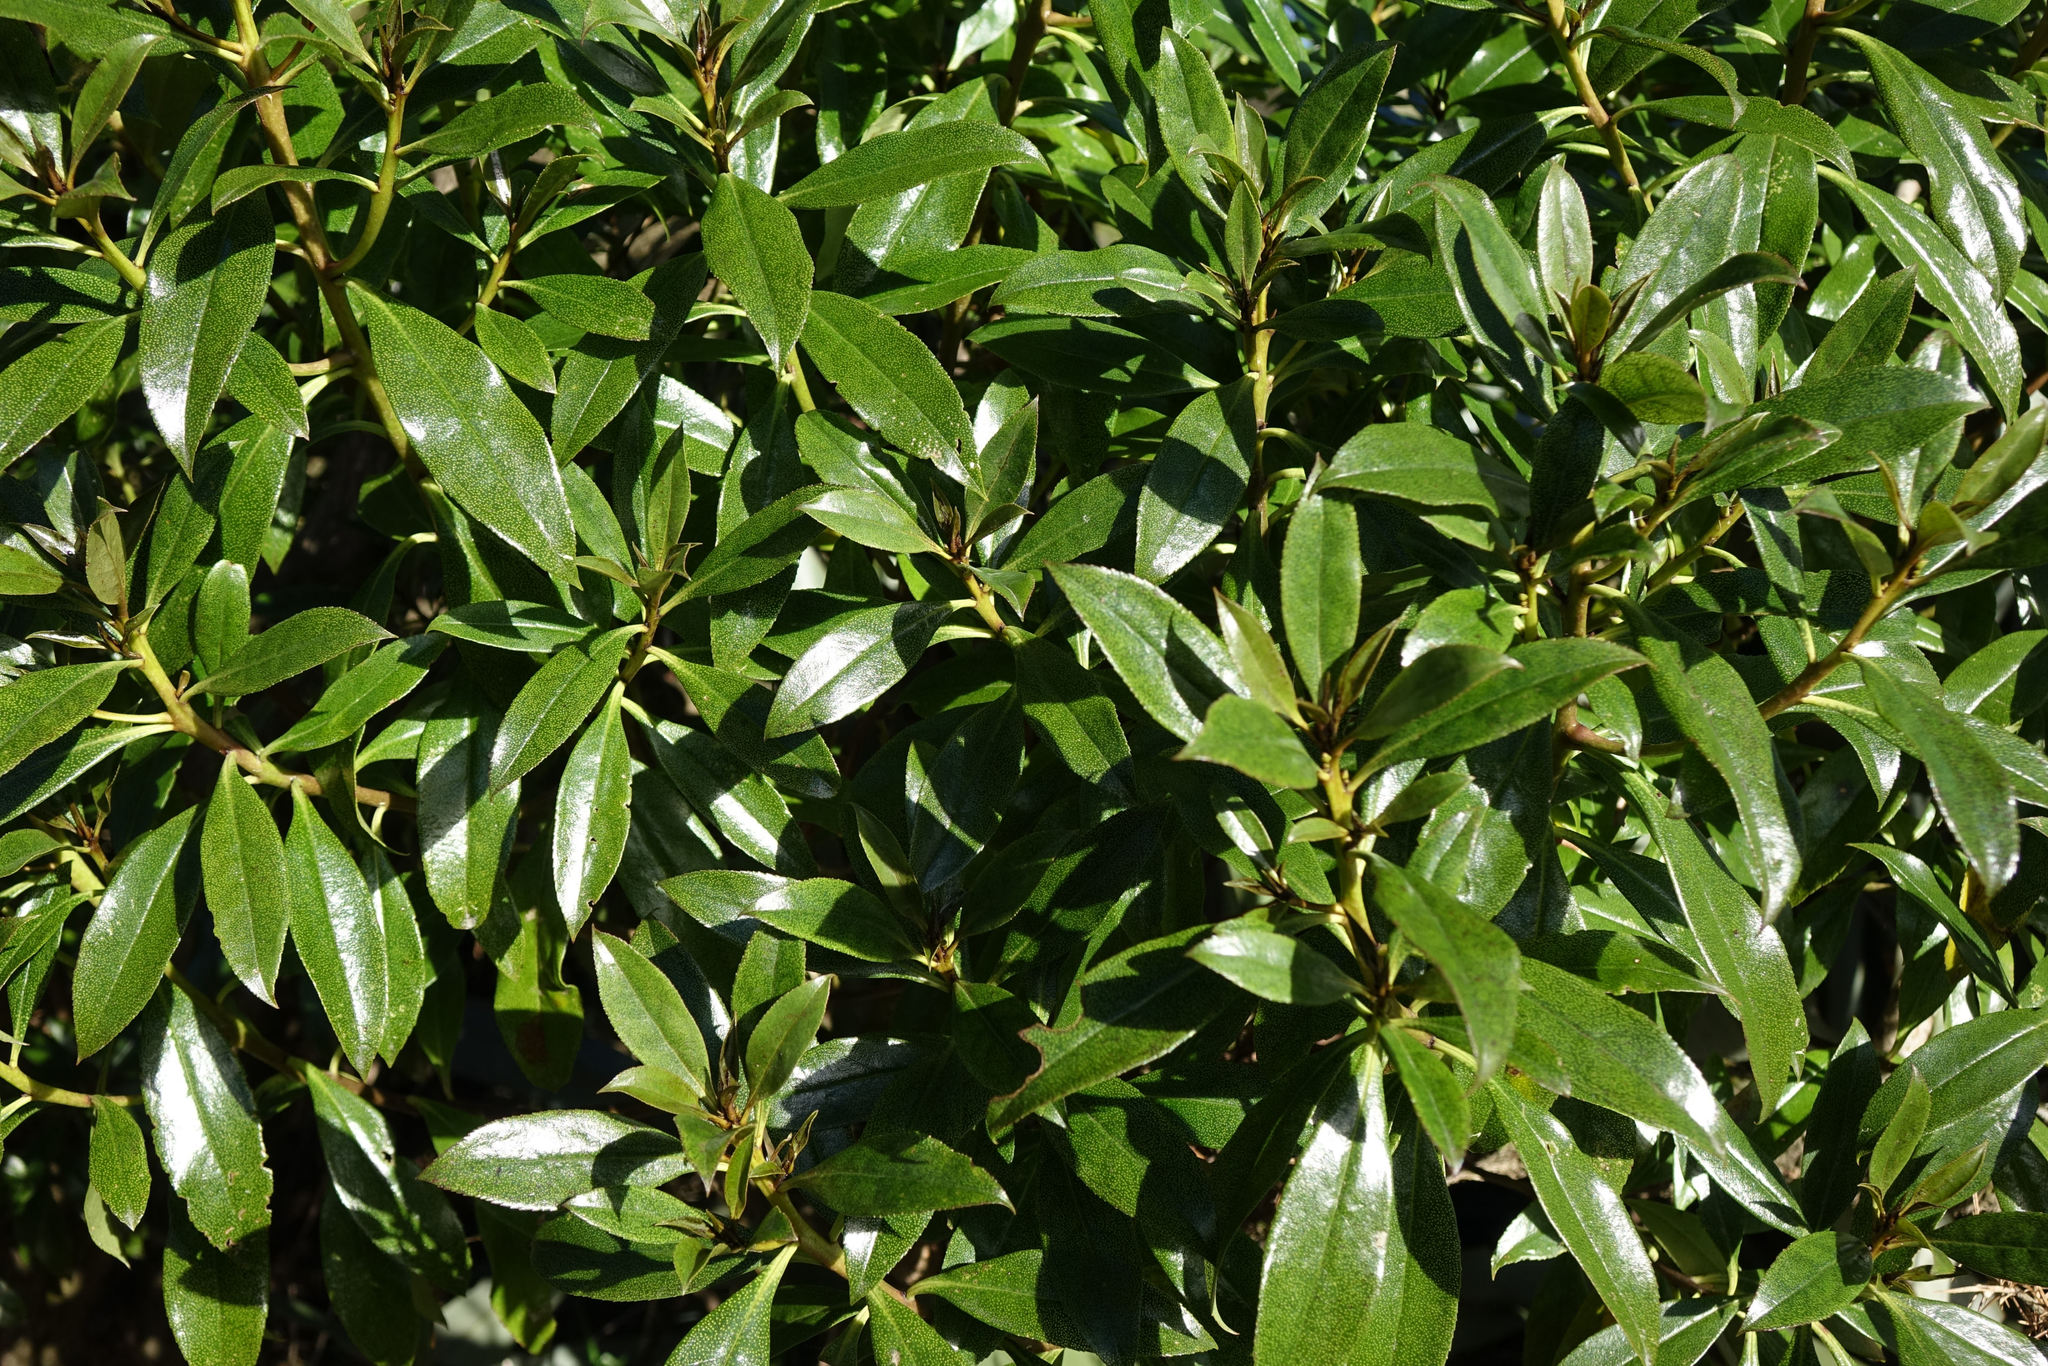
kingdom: Plantae
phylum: Tracheophyta
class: Magnoliopsida
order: Lamiales
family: Scrophulariaceae
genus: Myoporum
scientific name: Myoporum laetum
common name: Ngaio tree
